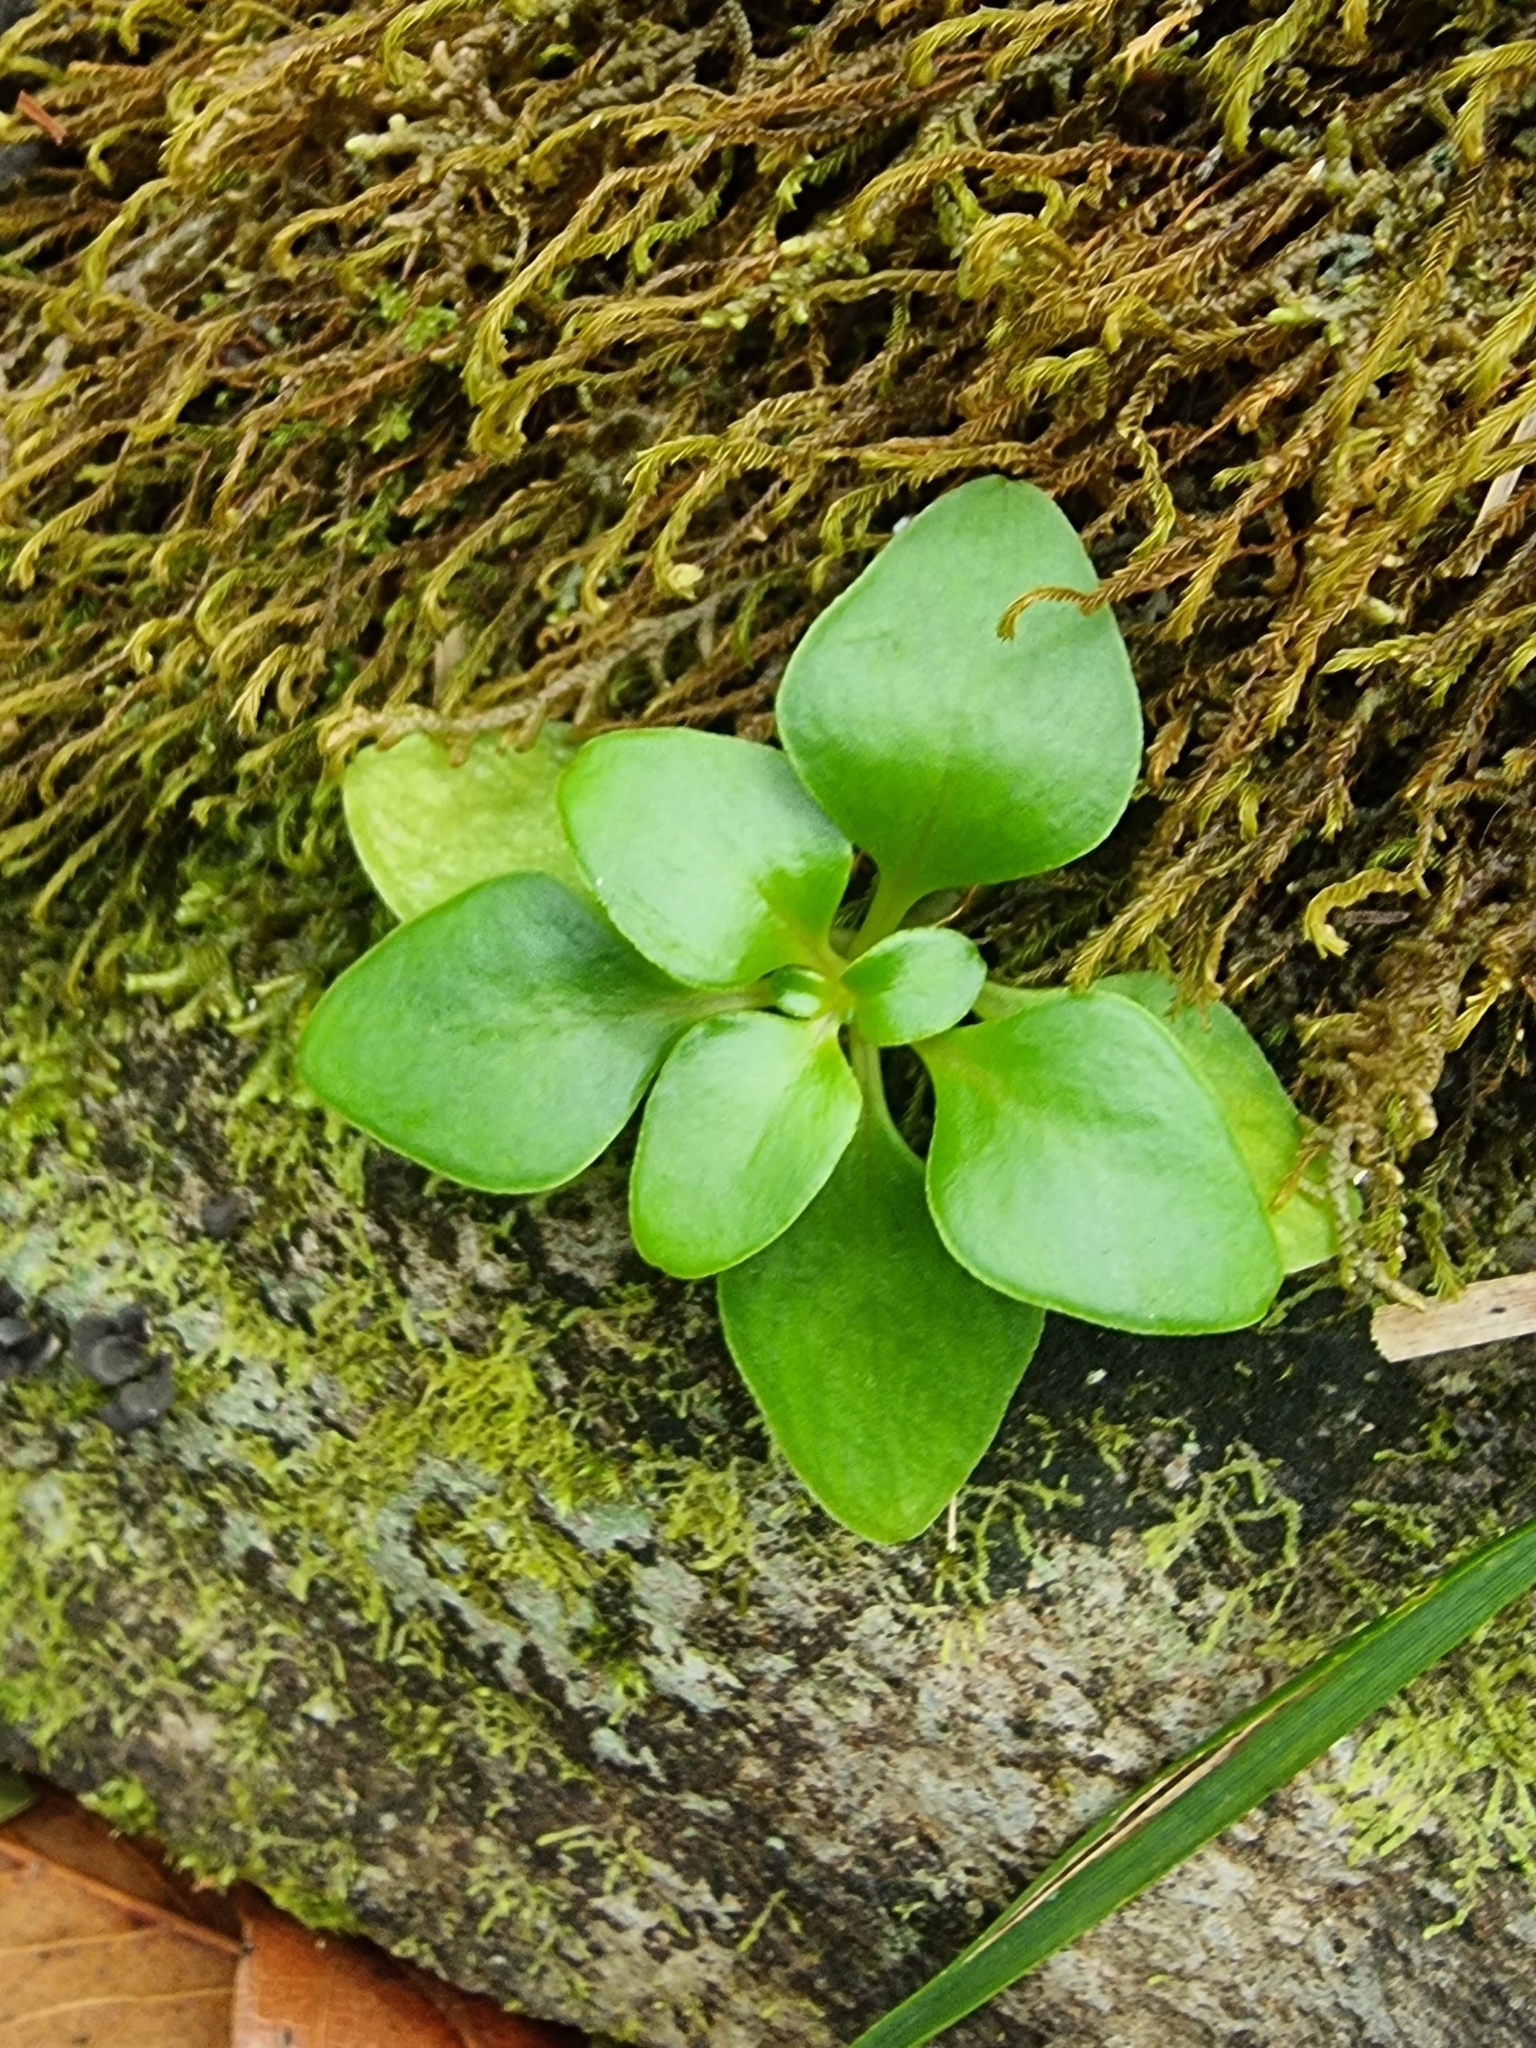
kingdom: Plantae
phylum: Tracheophyta
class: Magnoliopsida
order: Saxifragales
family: Crassulaceae
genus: Aichryson
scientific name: Aichryson divaricatum
